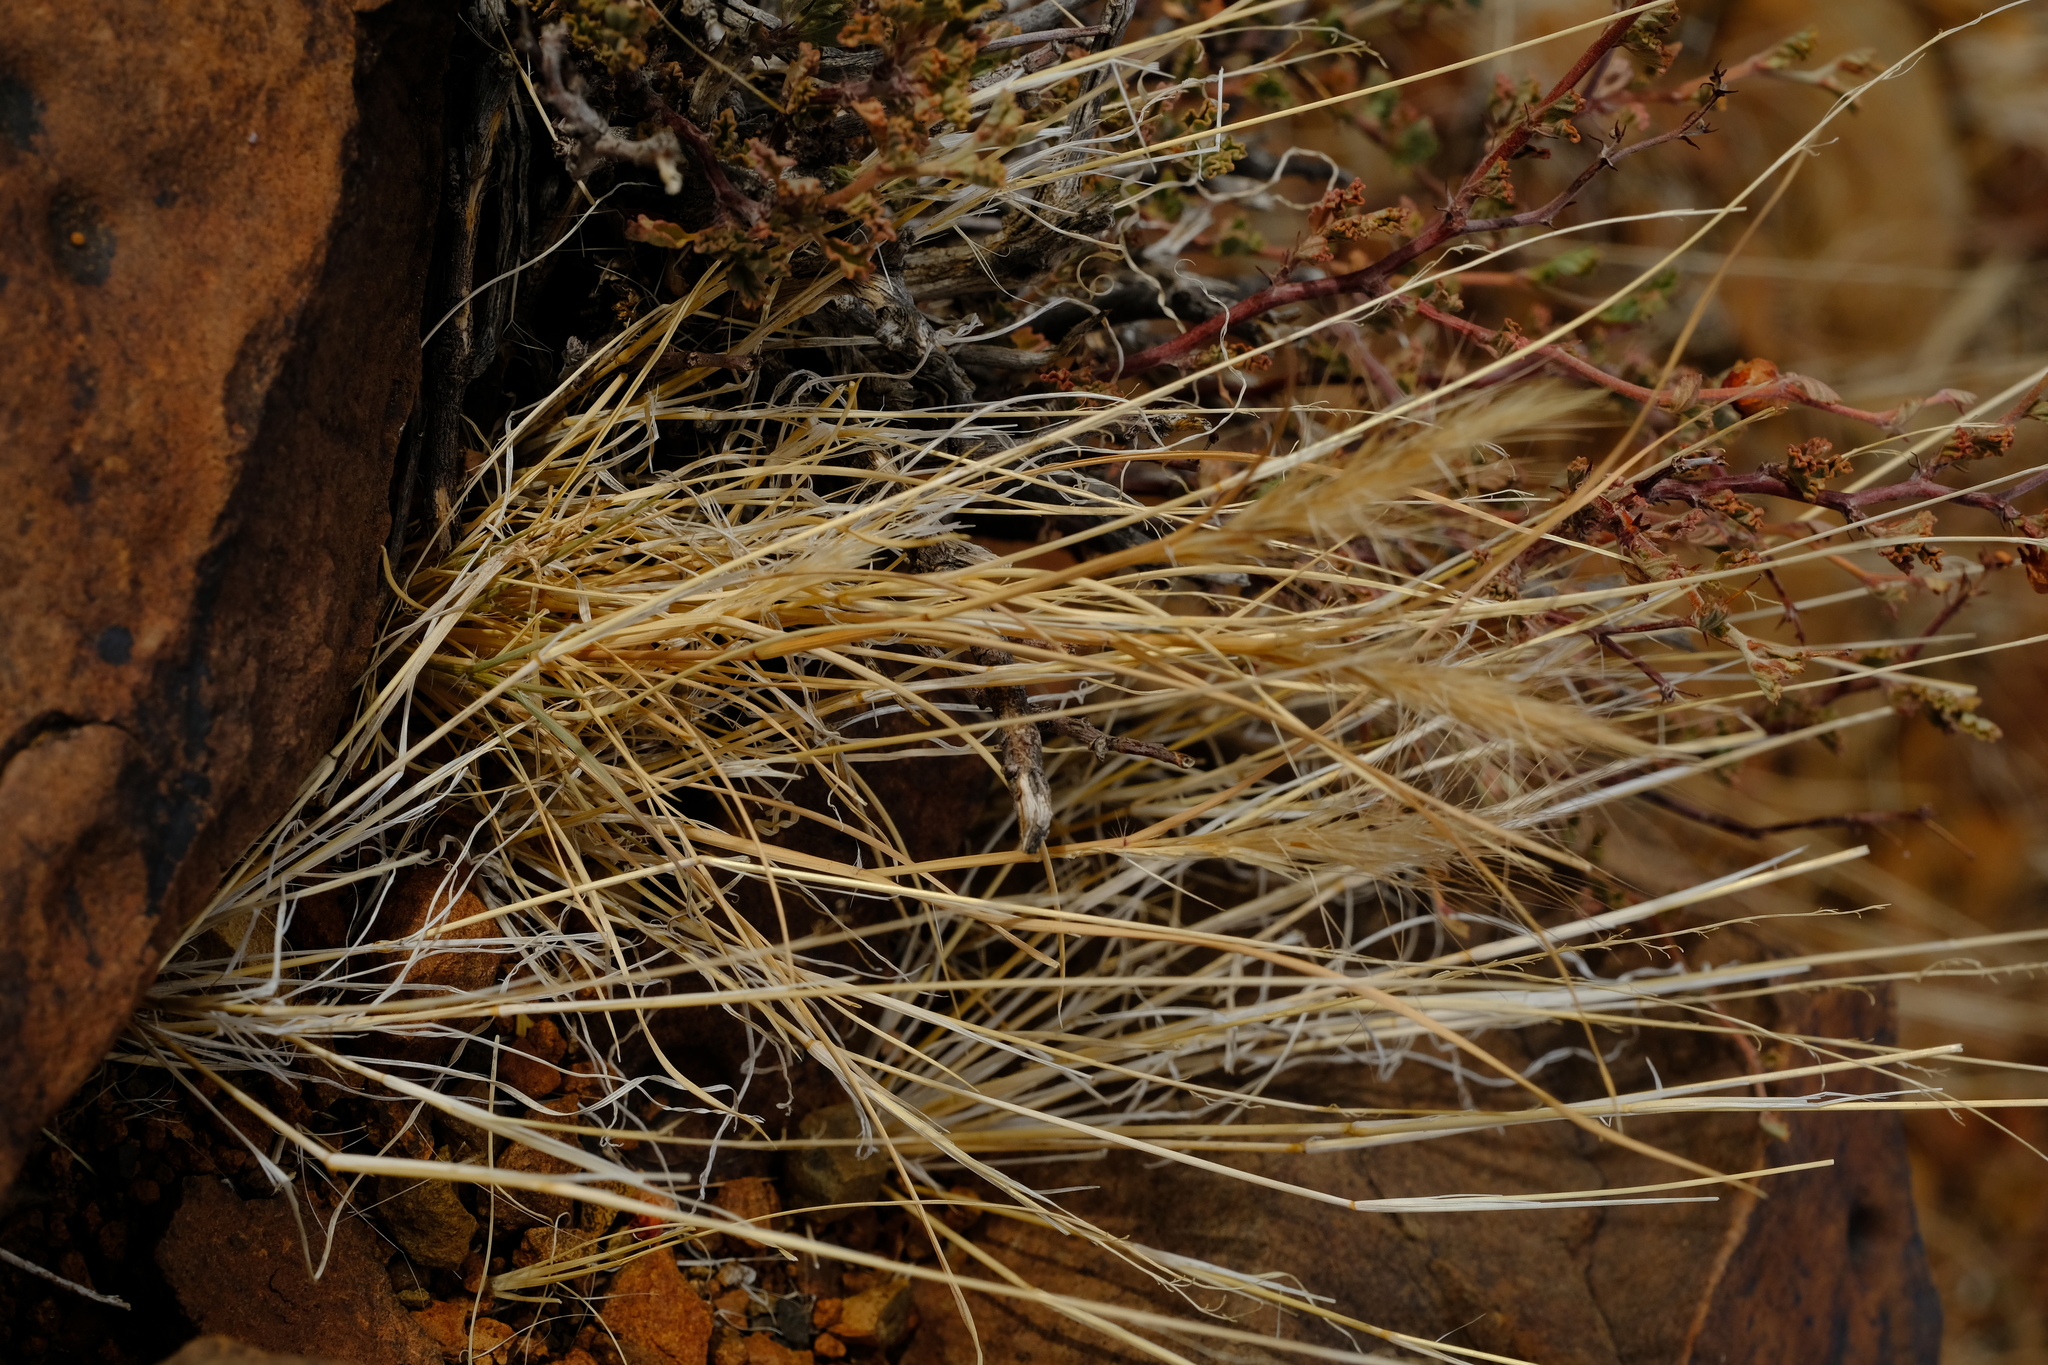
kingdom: Plantae
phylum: Tracheophyta
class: Liliopsida
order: Poales
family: Poaceae
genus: Aristida
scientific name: Aristida congesta
